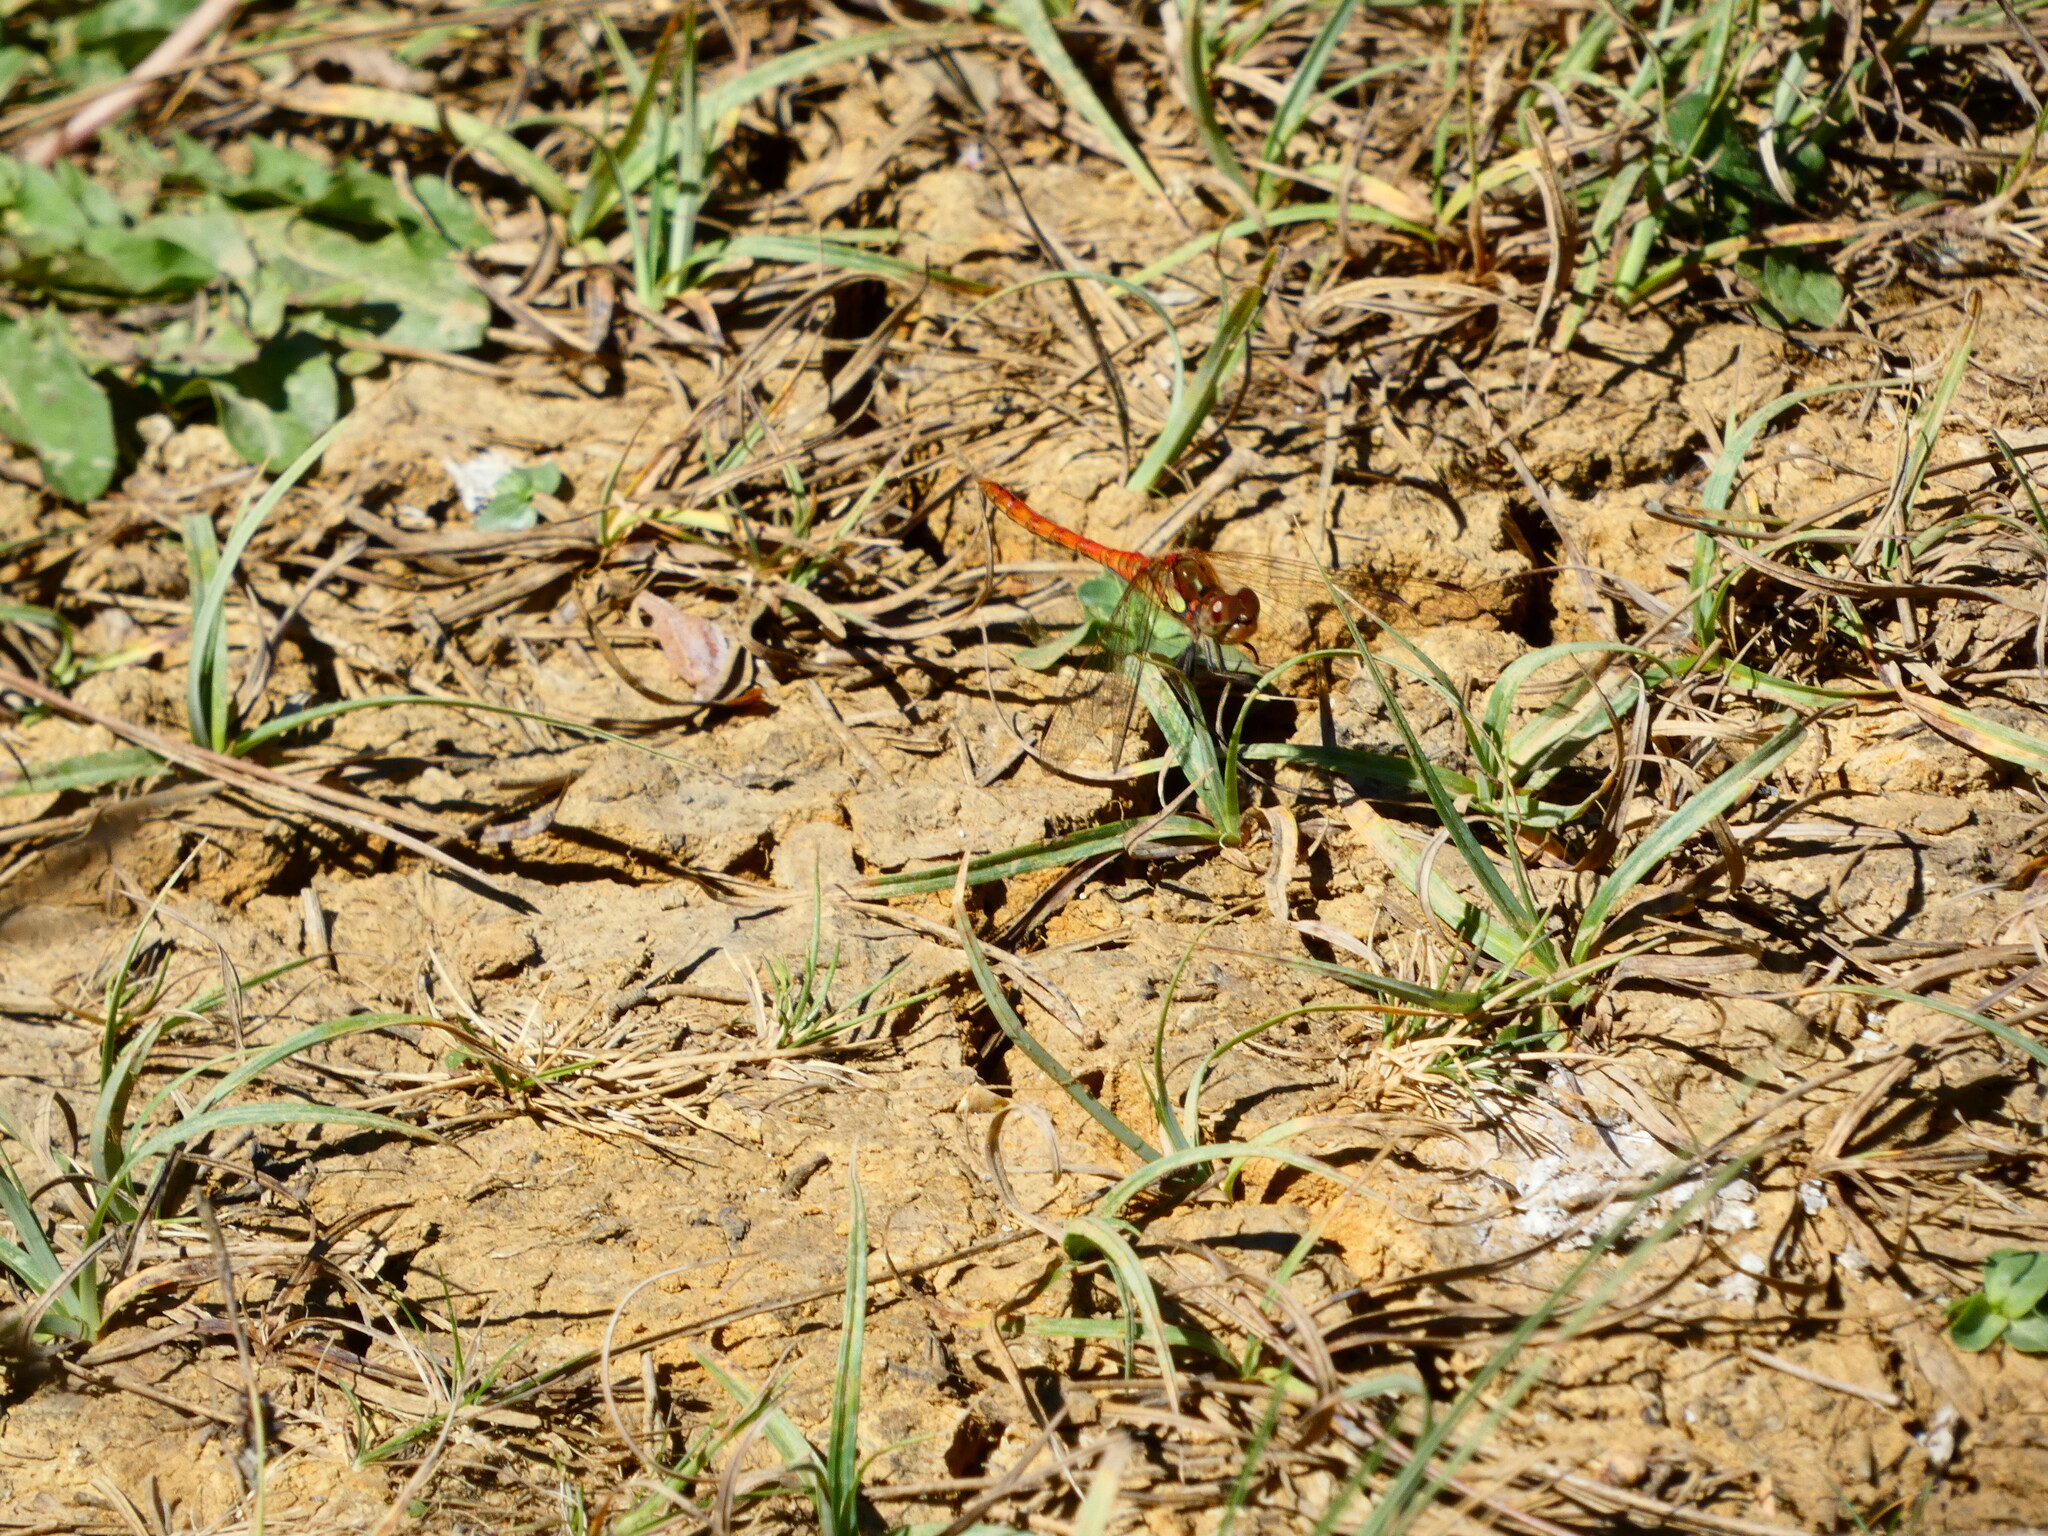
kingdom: Animalia
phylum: Arthropoda
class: Insecta
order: Odonata
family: Libellulidae
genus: Sympetrum
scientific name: Sympetrum striolatum
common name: Common darter
